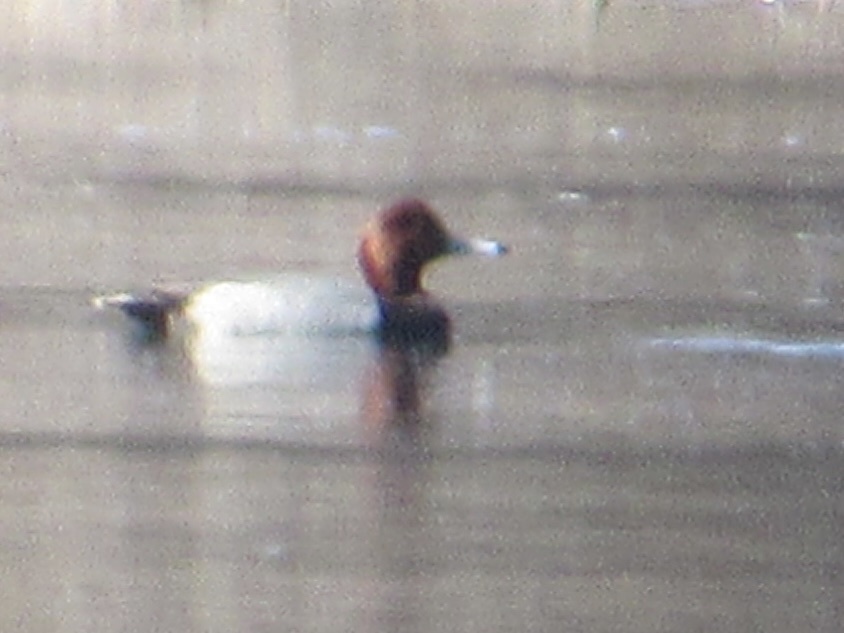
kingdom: Animalia
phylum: Chordata
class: Aves
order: Anseriformes
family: Anatidae
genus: Aythya
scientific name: Aythya americana
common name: Redhead
